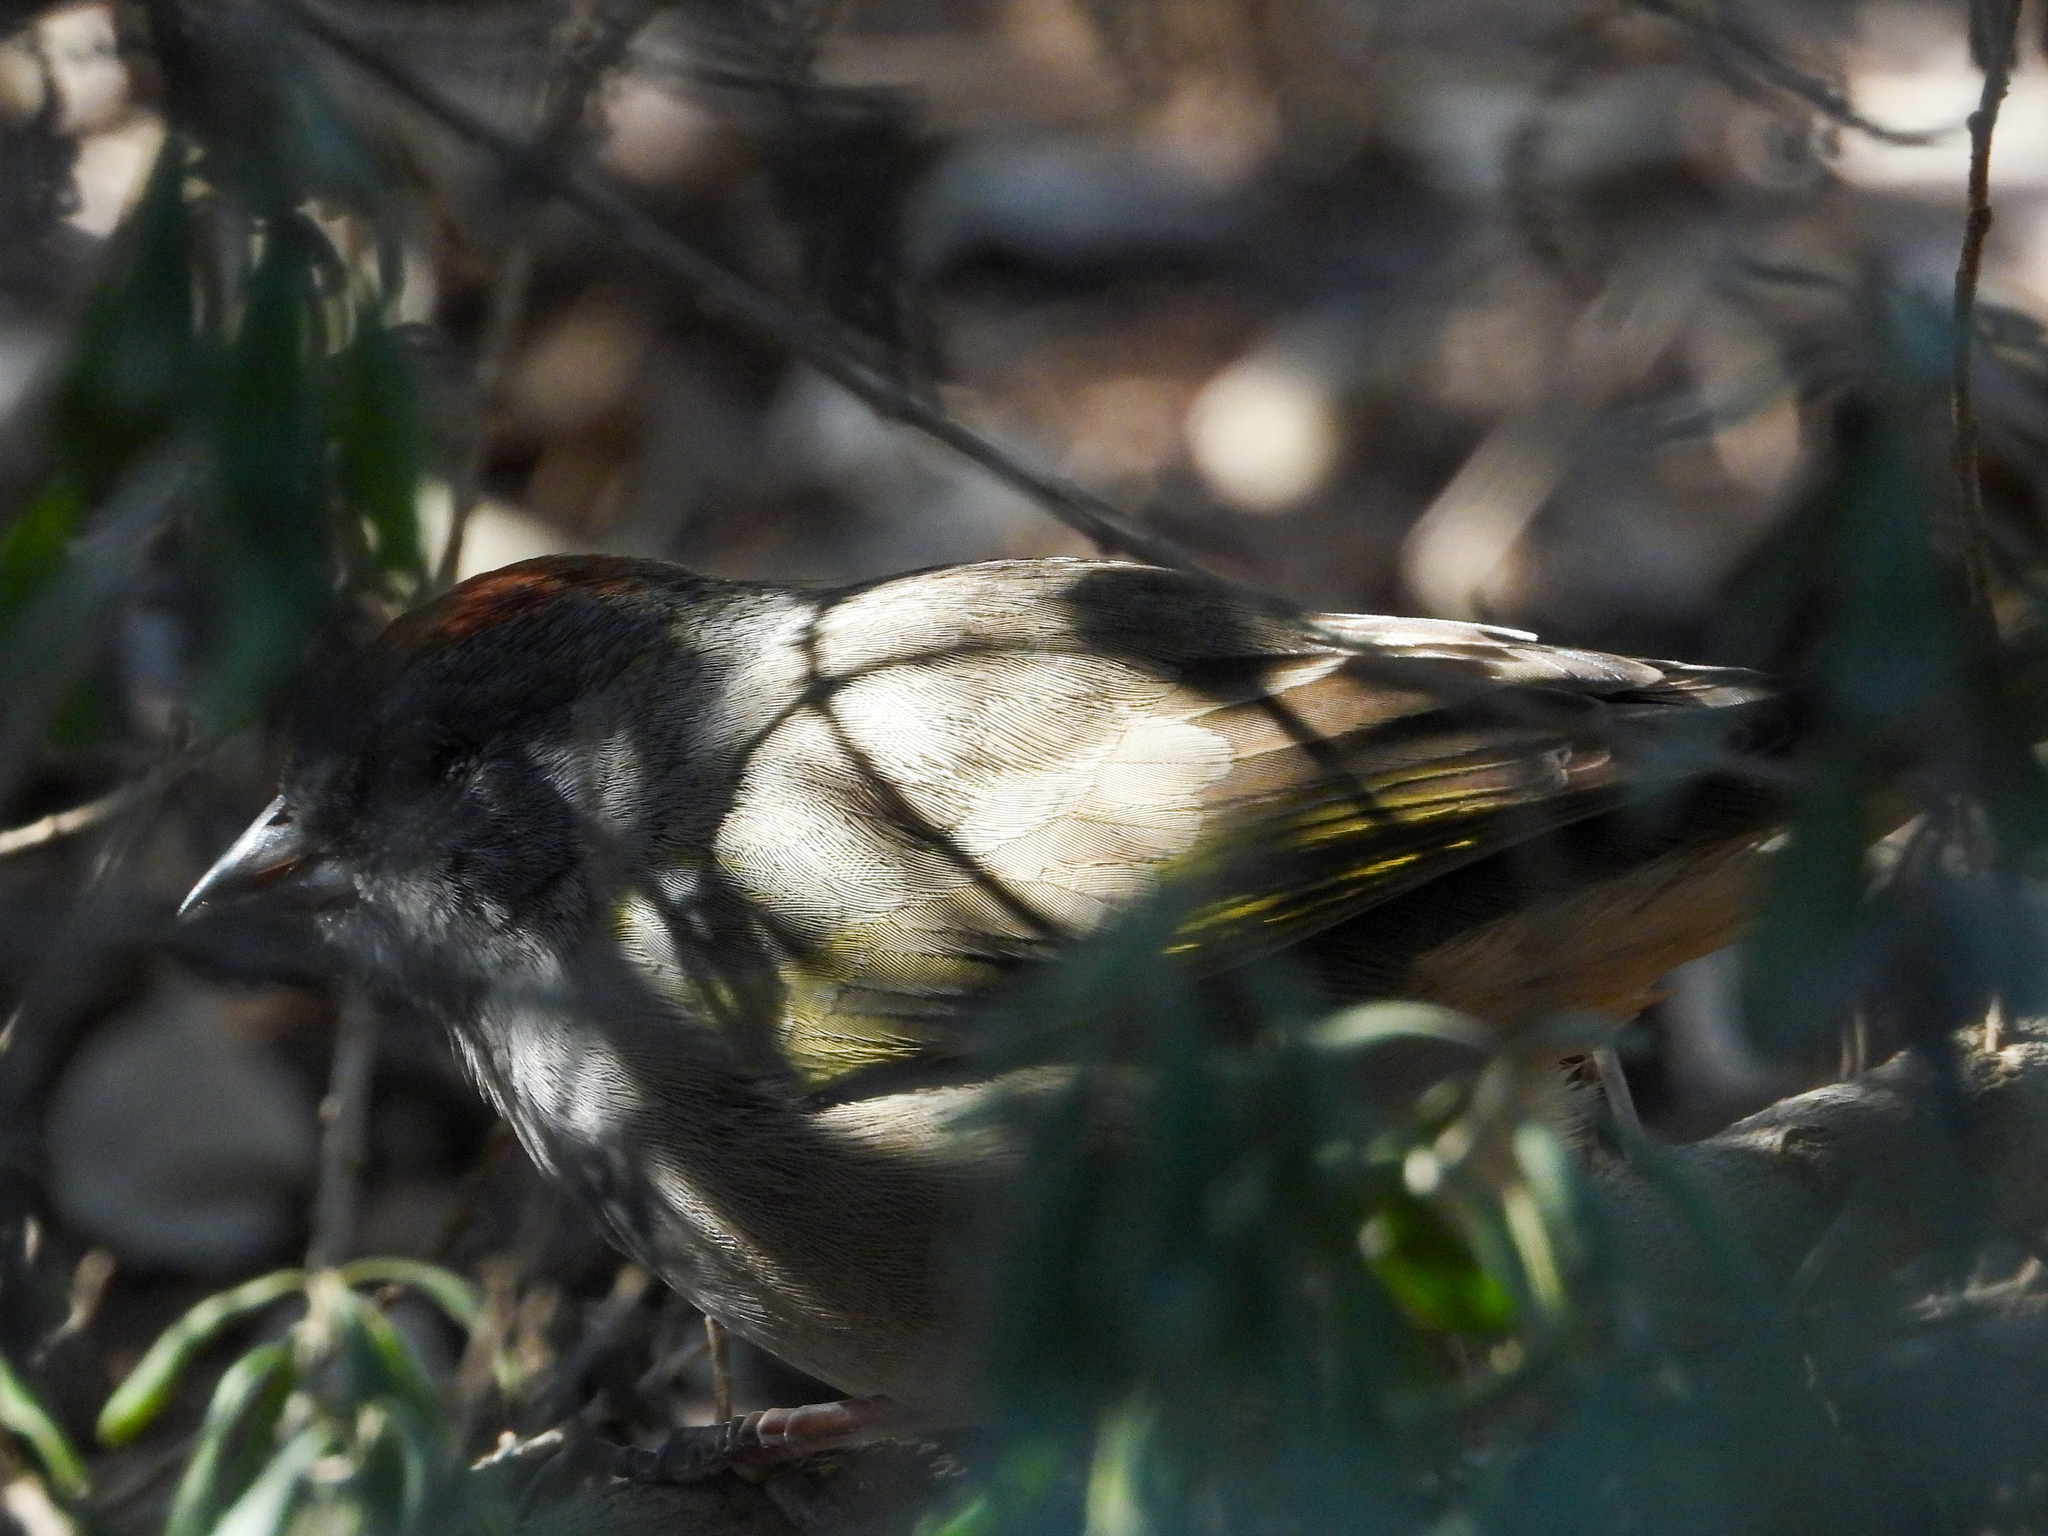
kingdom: Animalia
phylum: Chordata
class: Aves
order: Passeriformes
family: Passerellidae
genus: Pipilo
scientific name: Pipilo chlorurus
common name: Green-tailed towhee
